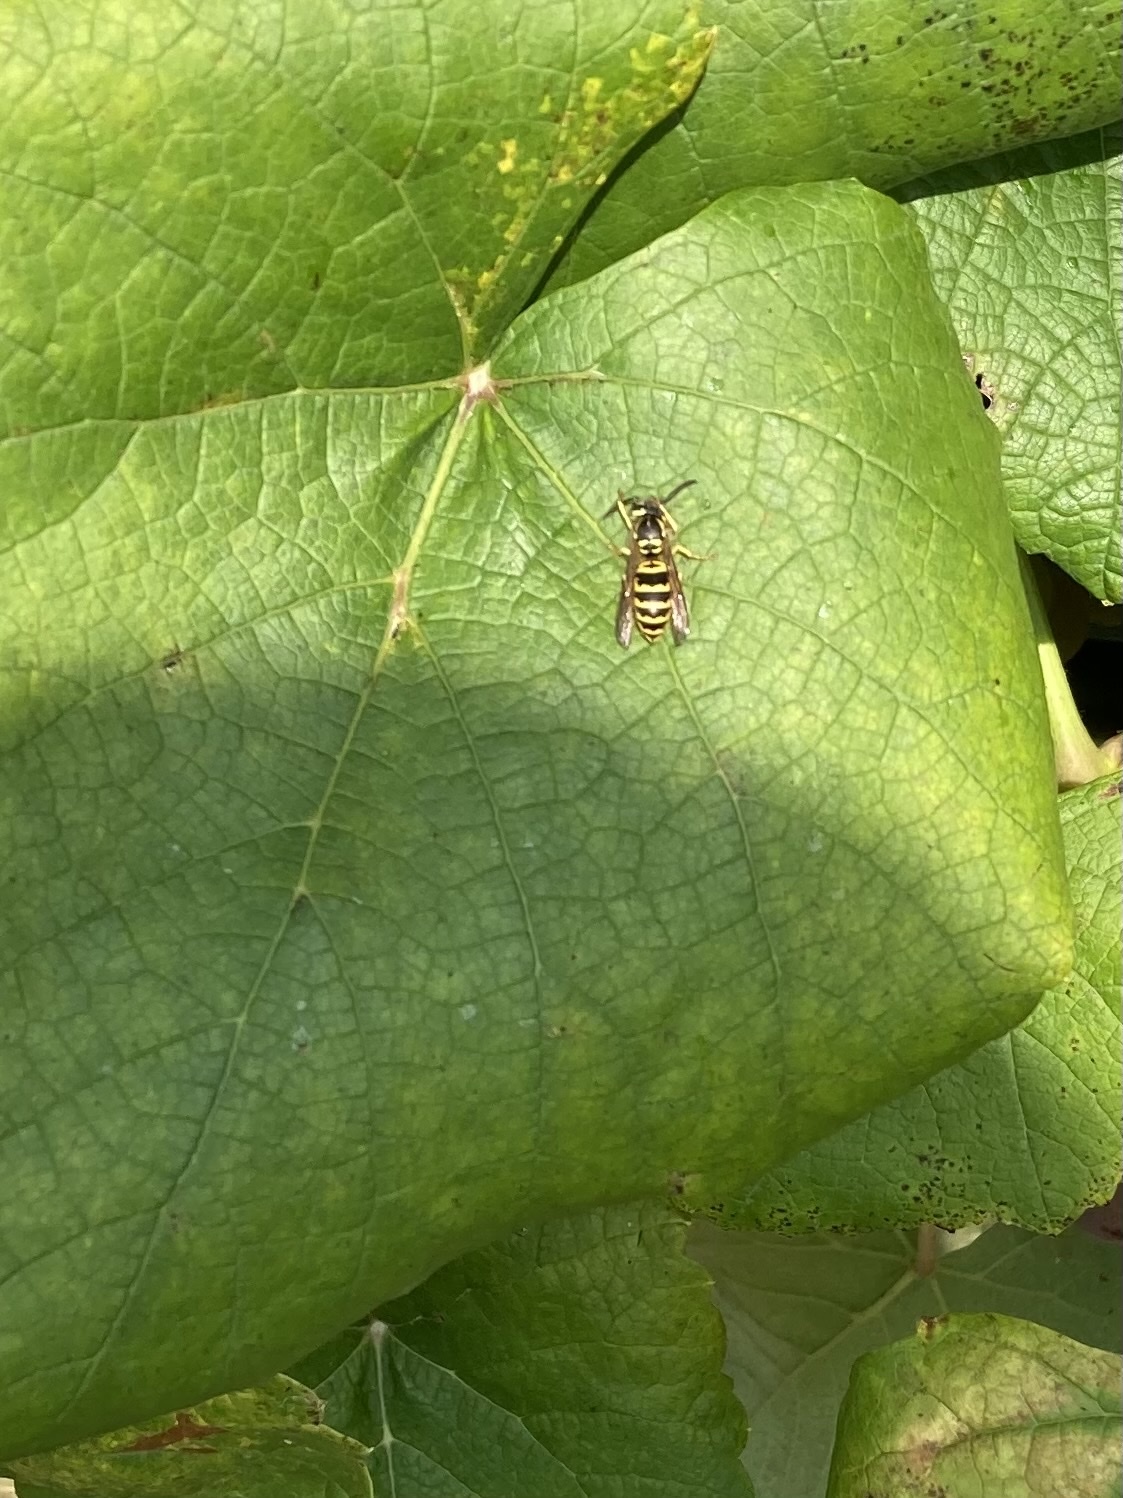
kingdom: Animalia
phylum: Arthropoda
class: Insecta
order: Hymenoptera
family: Vespidae
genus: Vespula
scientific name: Vespula maculifrons
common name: Eastern yellowjacket
